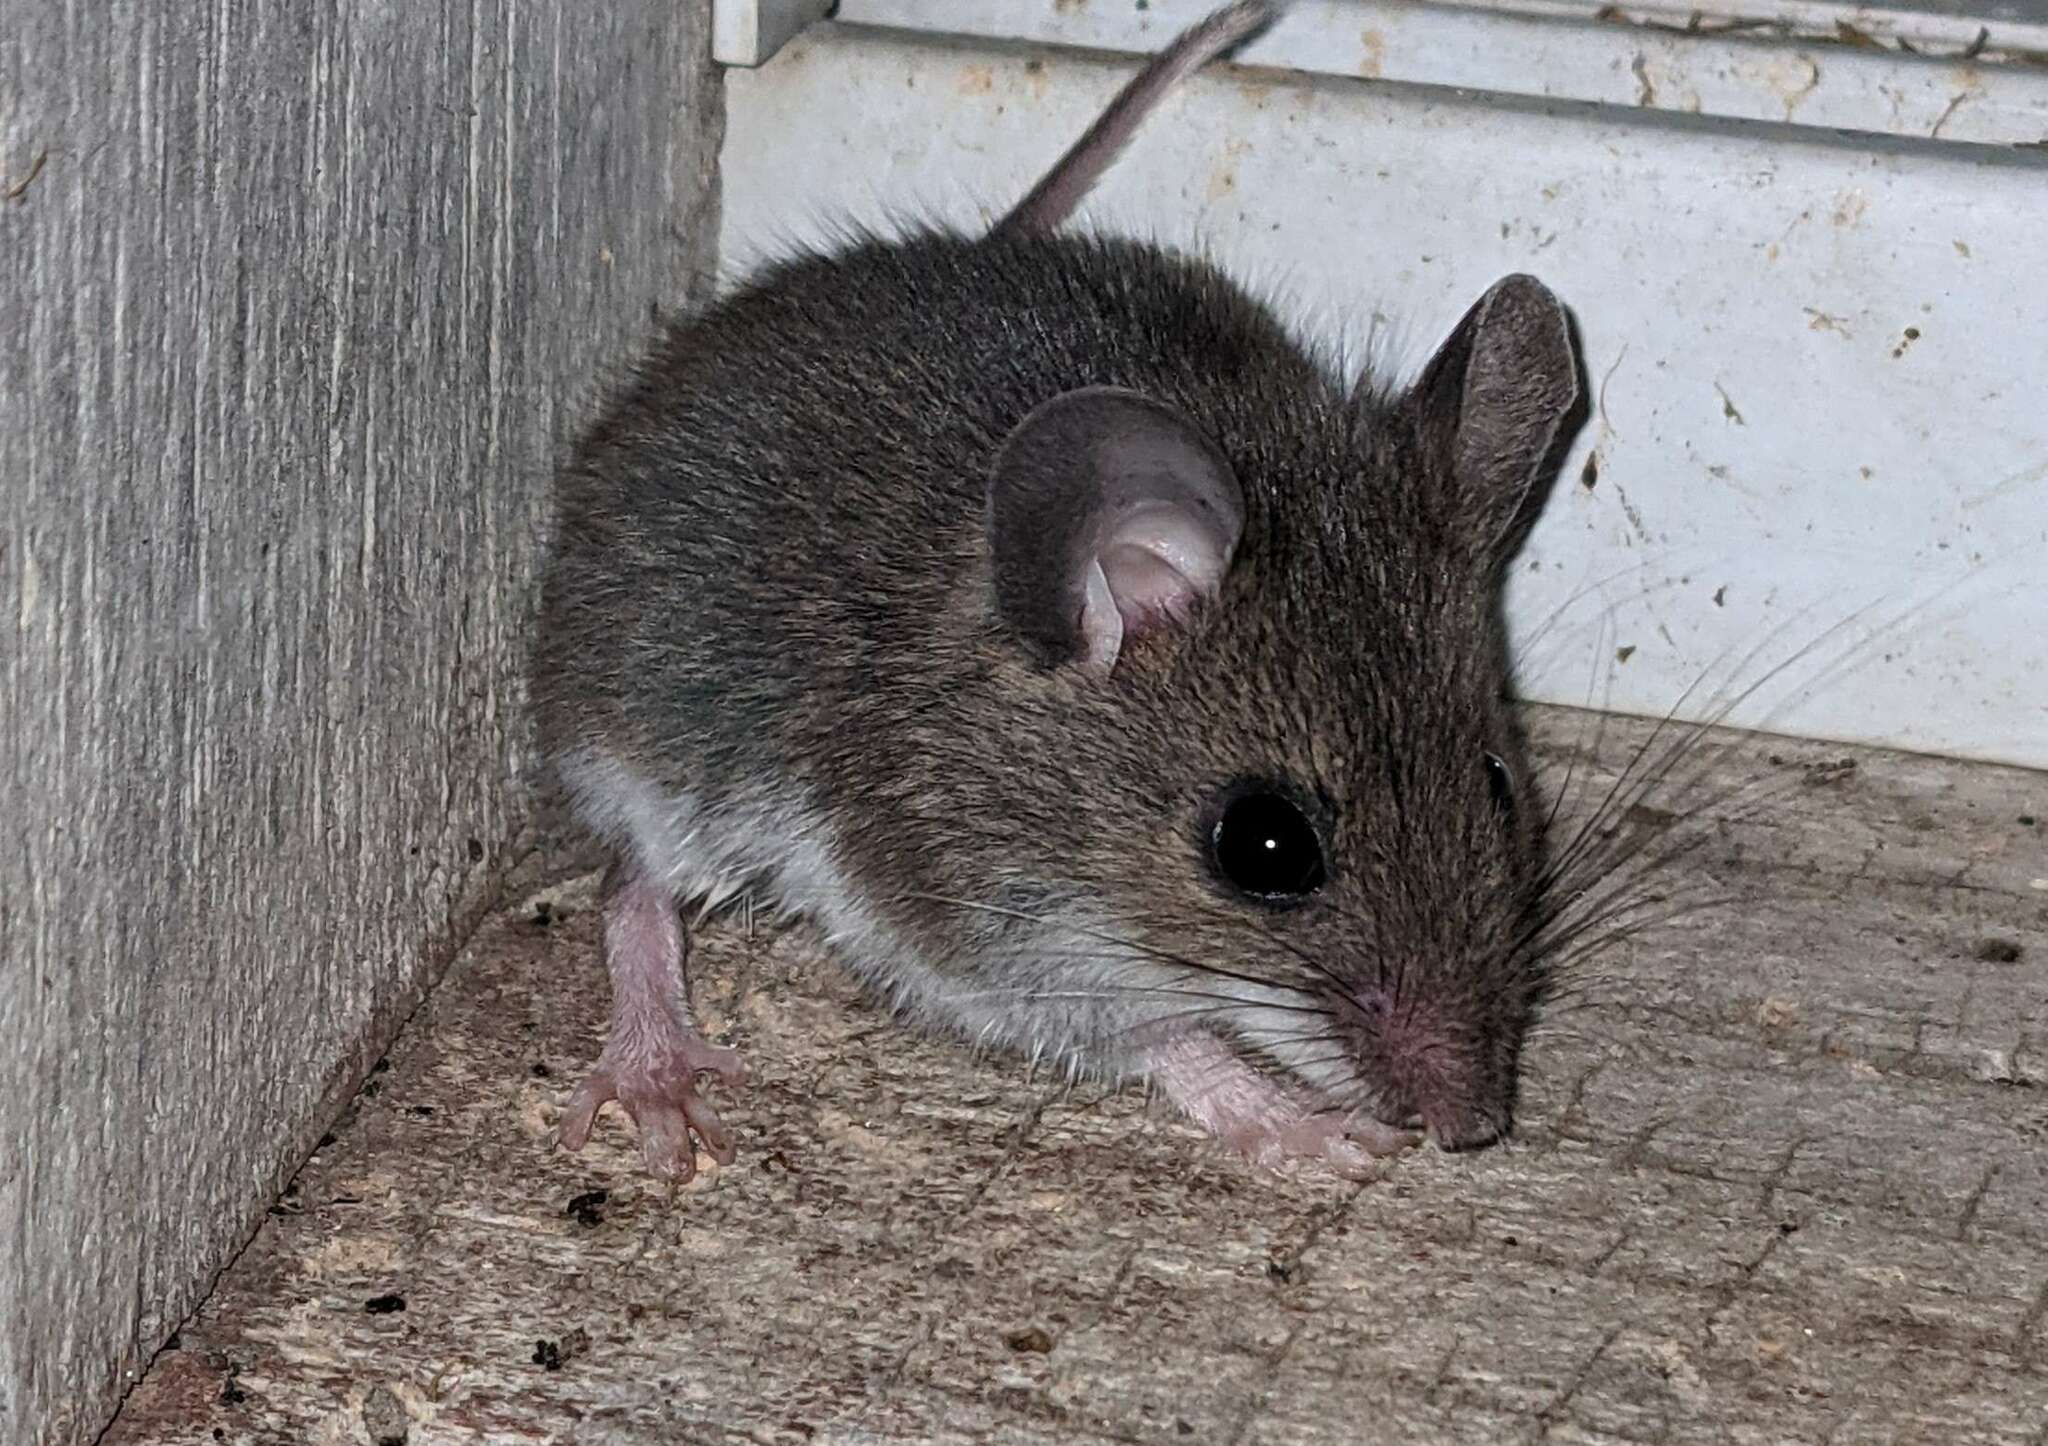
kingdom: Animalia
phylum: Chordata
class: Mammalia
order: Rodentia
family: Cricetidae
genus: Peromyscus
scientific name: Peromyscus maniculatus
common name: Deer mouse
